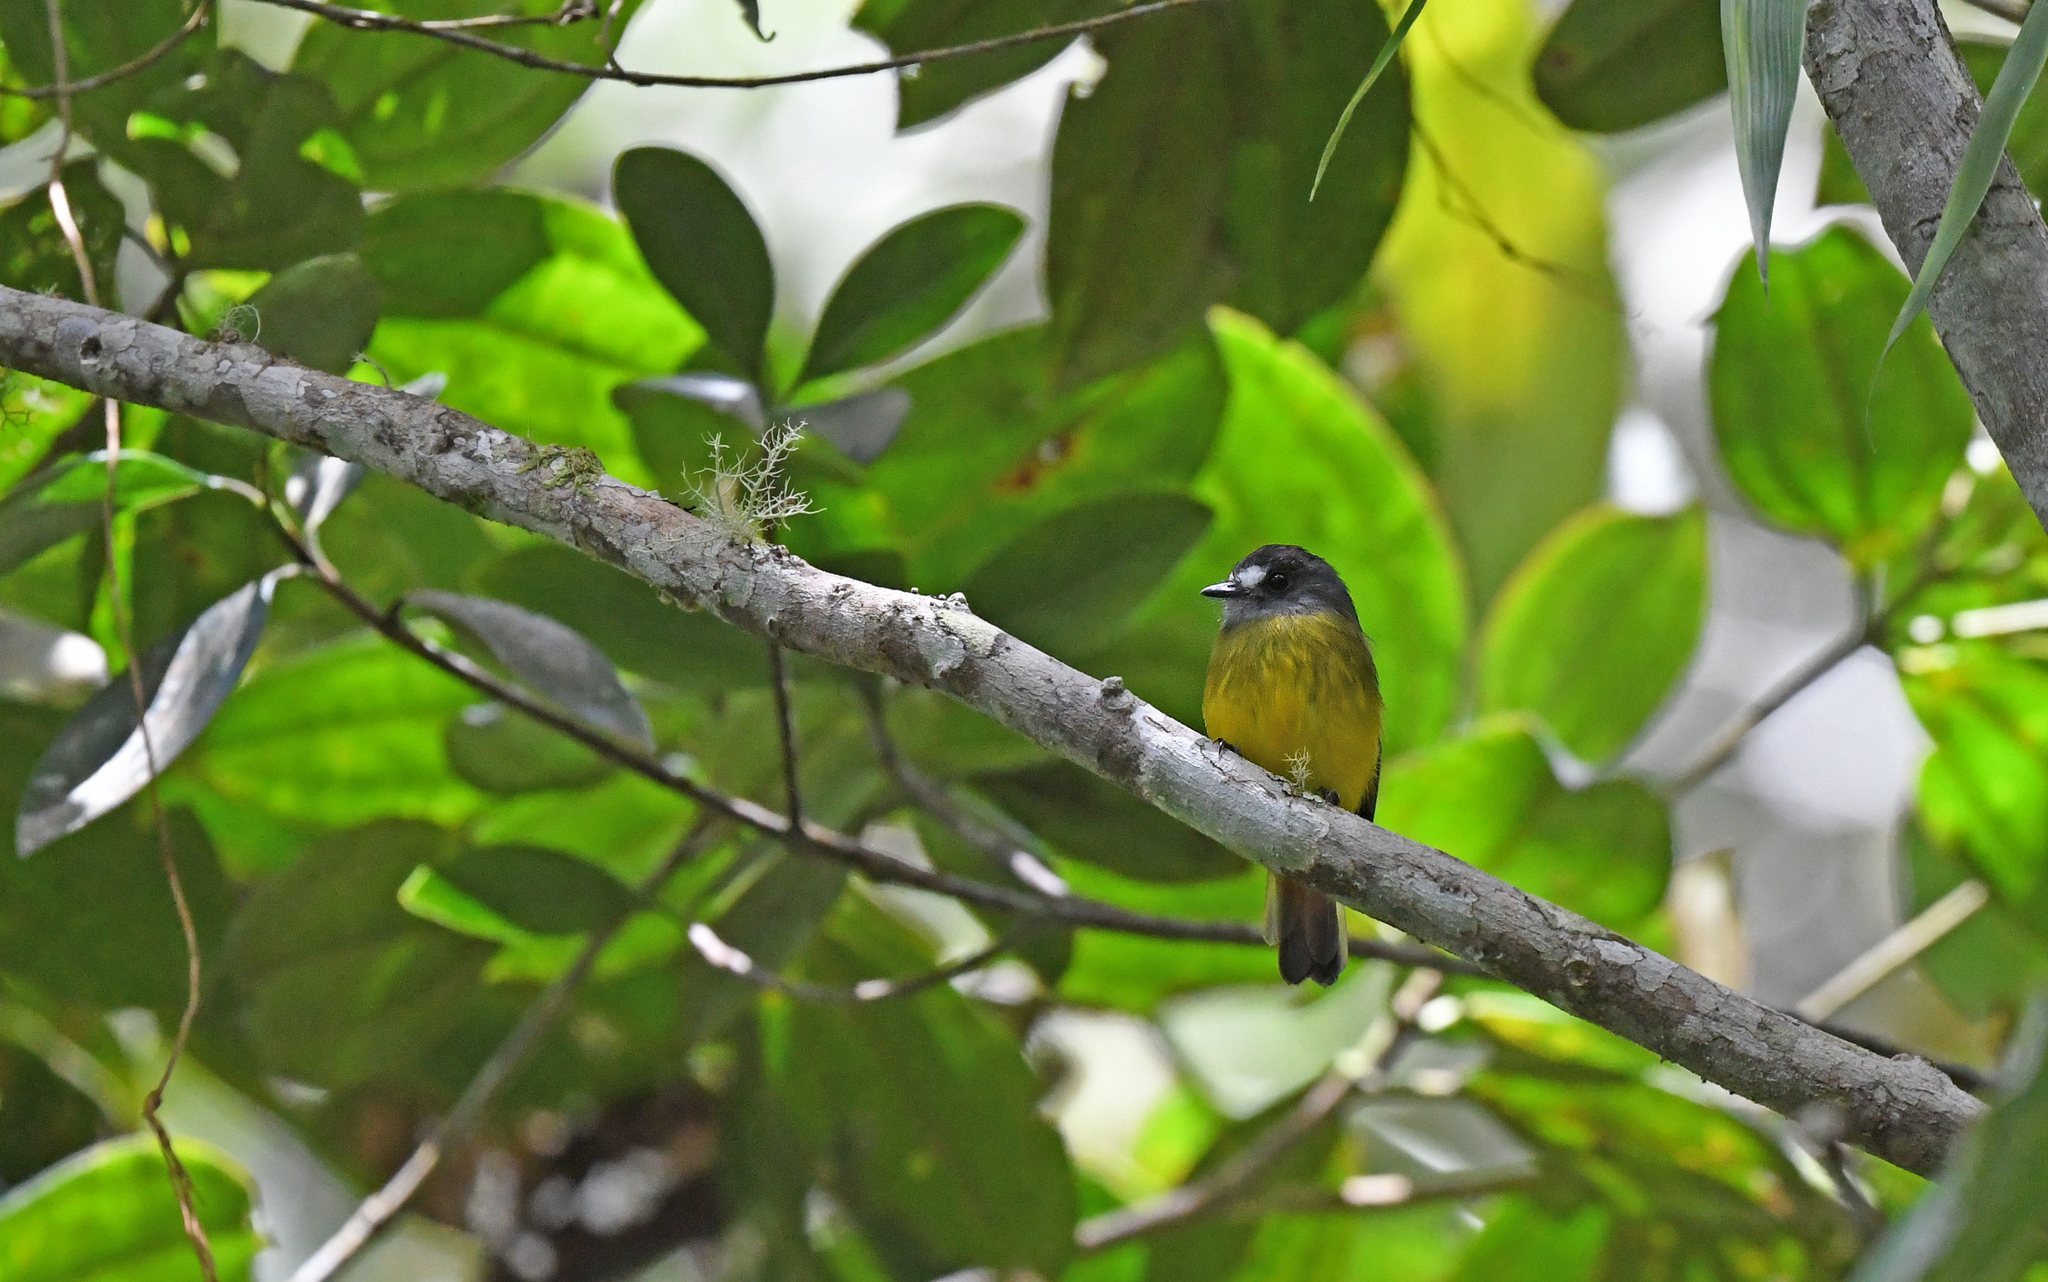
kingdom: Animalia
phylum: Chordata
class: Aves
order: Passeriformes
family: Tyrannidae
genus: Myiotriccus
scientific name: Myiotriccus ornatus
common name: Ornate flycatcher
